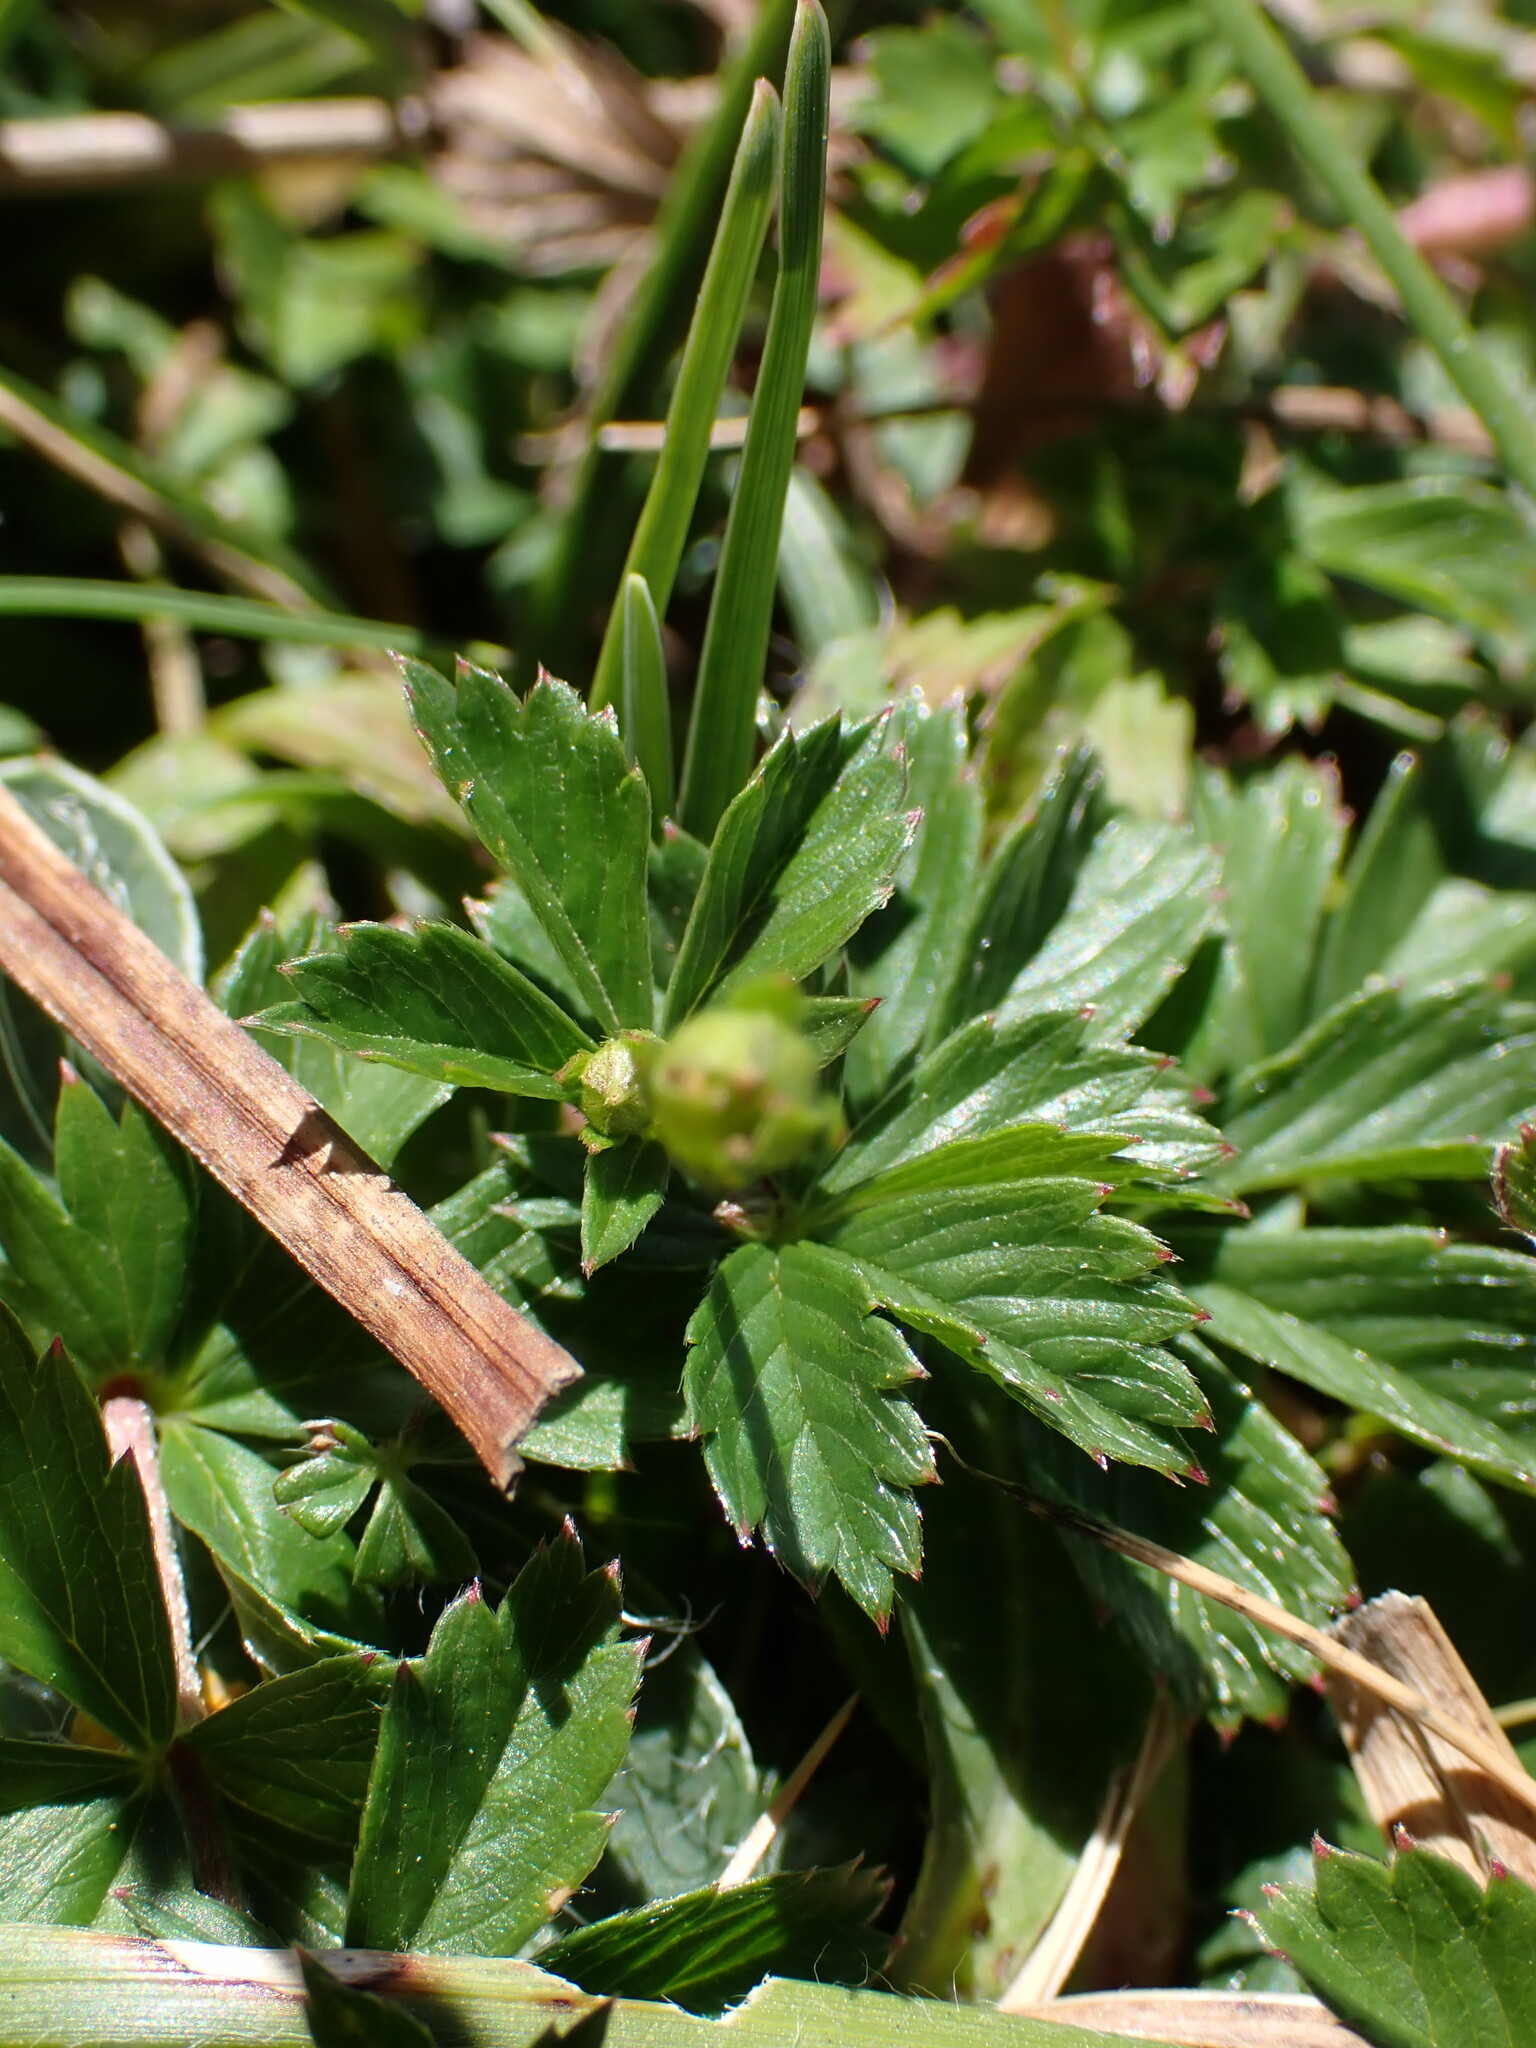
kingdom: Plantae
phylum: Tracheophyta
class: Magnoliopsida
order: Rosales
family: Rosaceae
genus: Potentilla
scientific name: Potentilla erecta
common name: Tormentil
